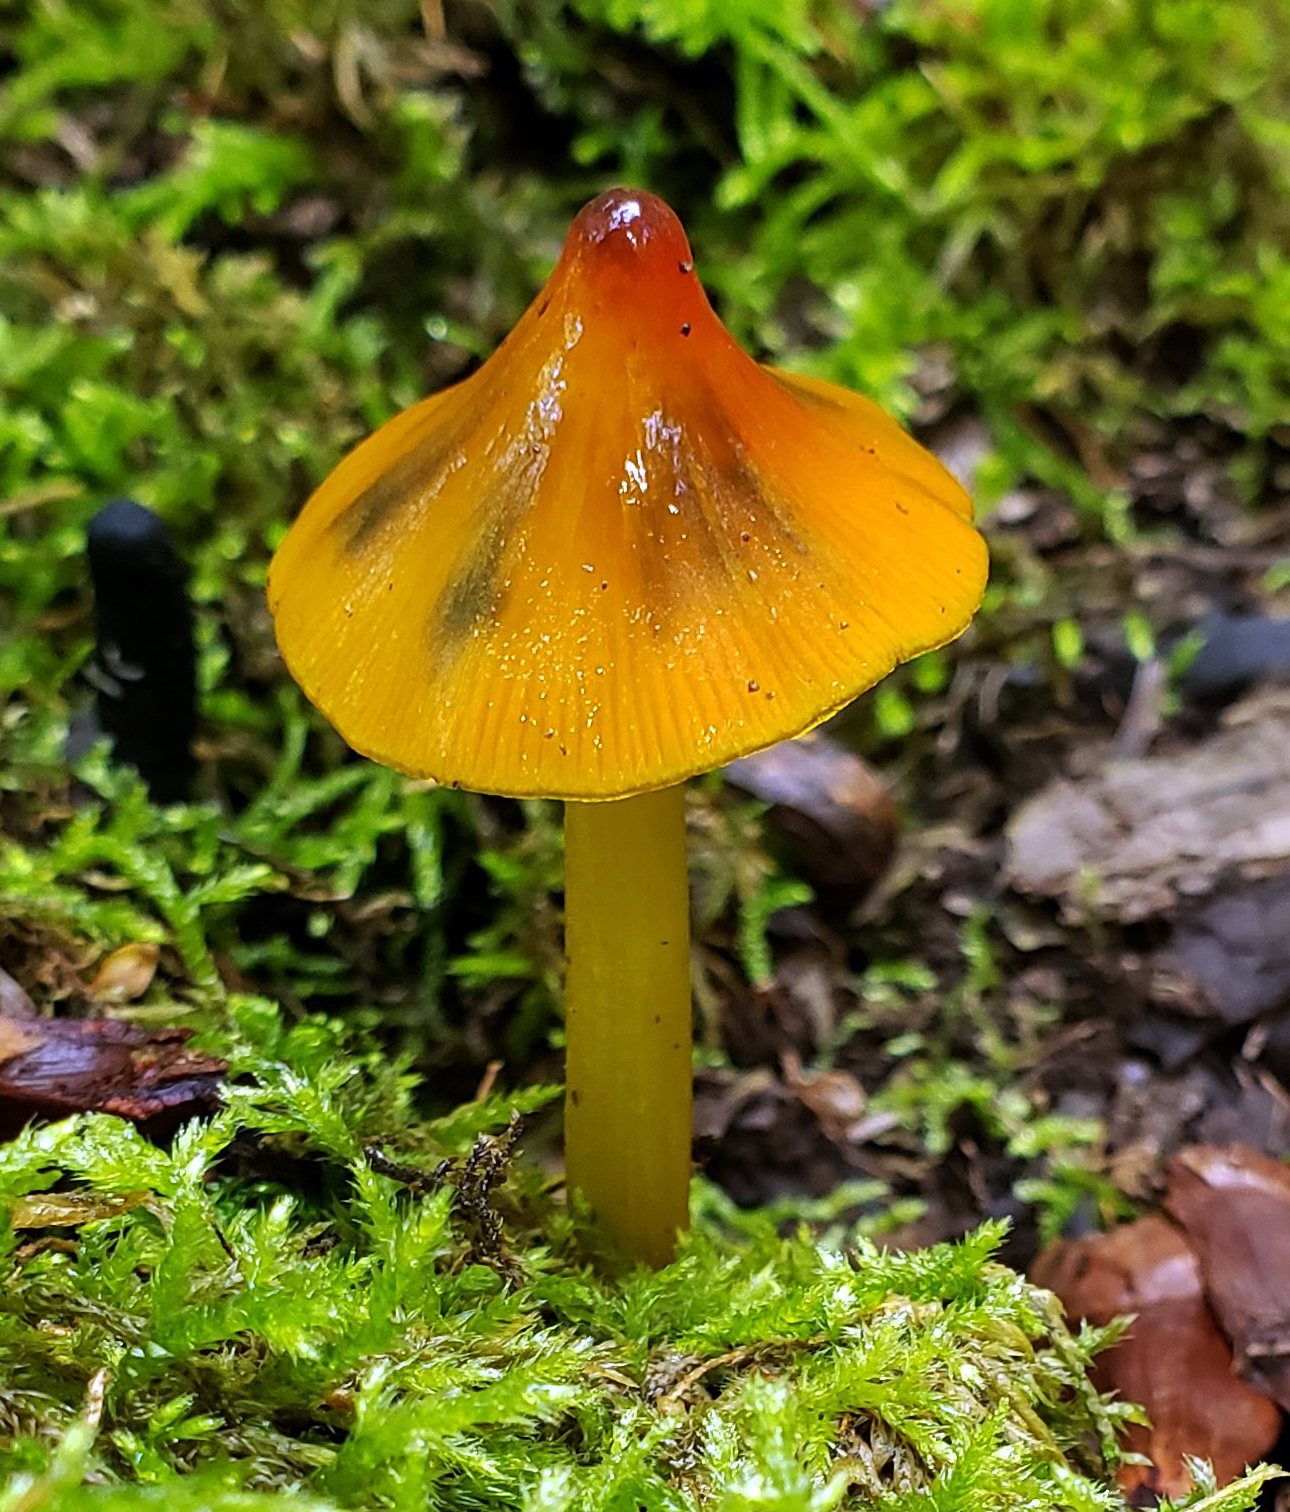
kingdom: Fungi
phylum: Basidiomycota
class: Agaricomycetes
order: Agaricales
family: Hygrophoraceae
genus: Hygrocybe
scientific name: Hygrocybe conica
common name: Blackening wax-cap
